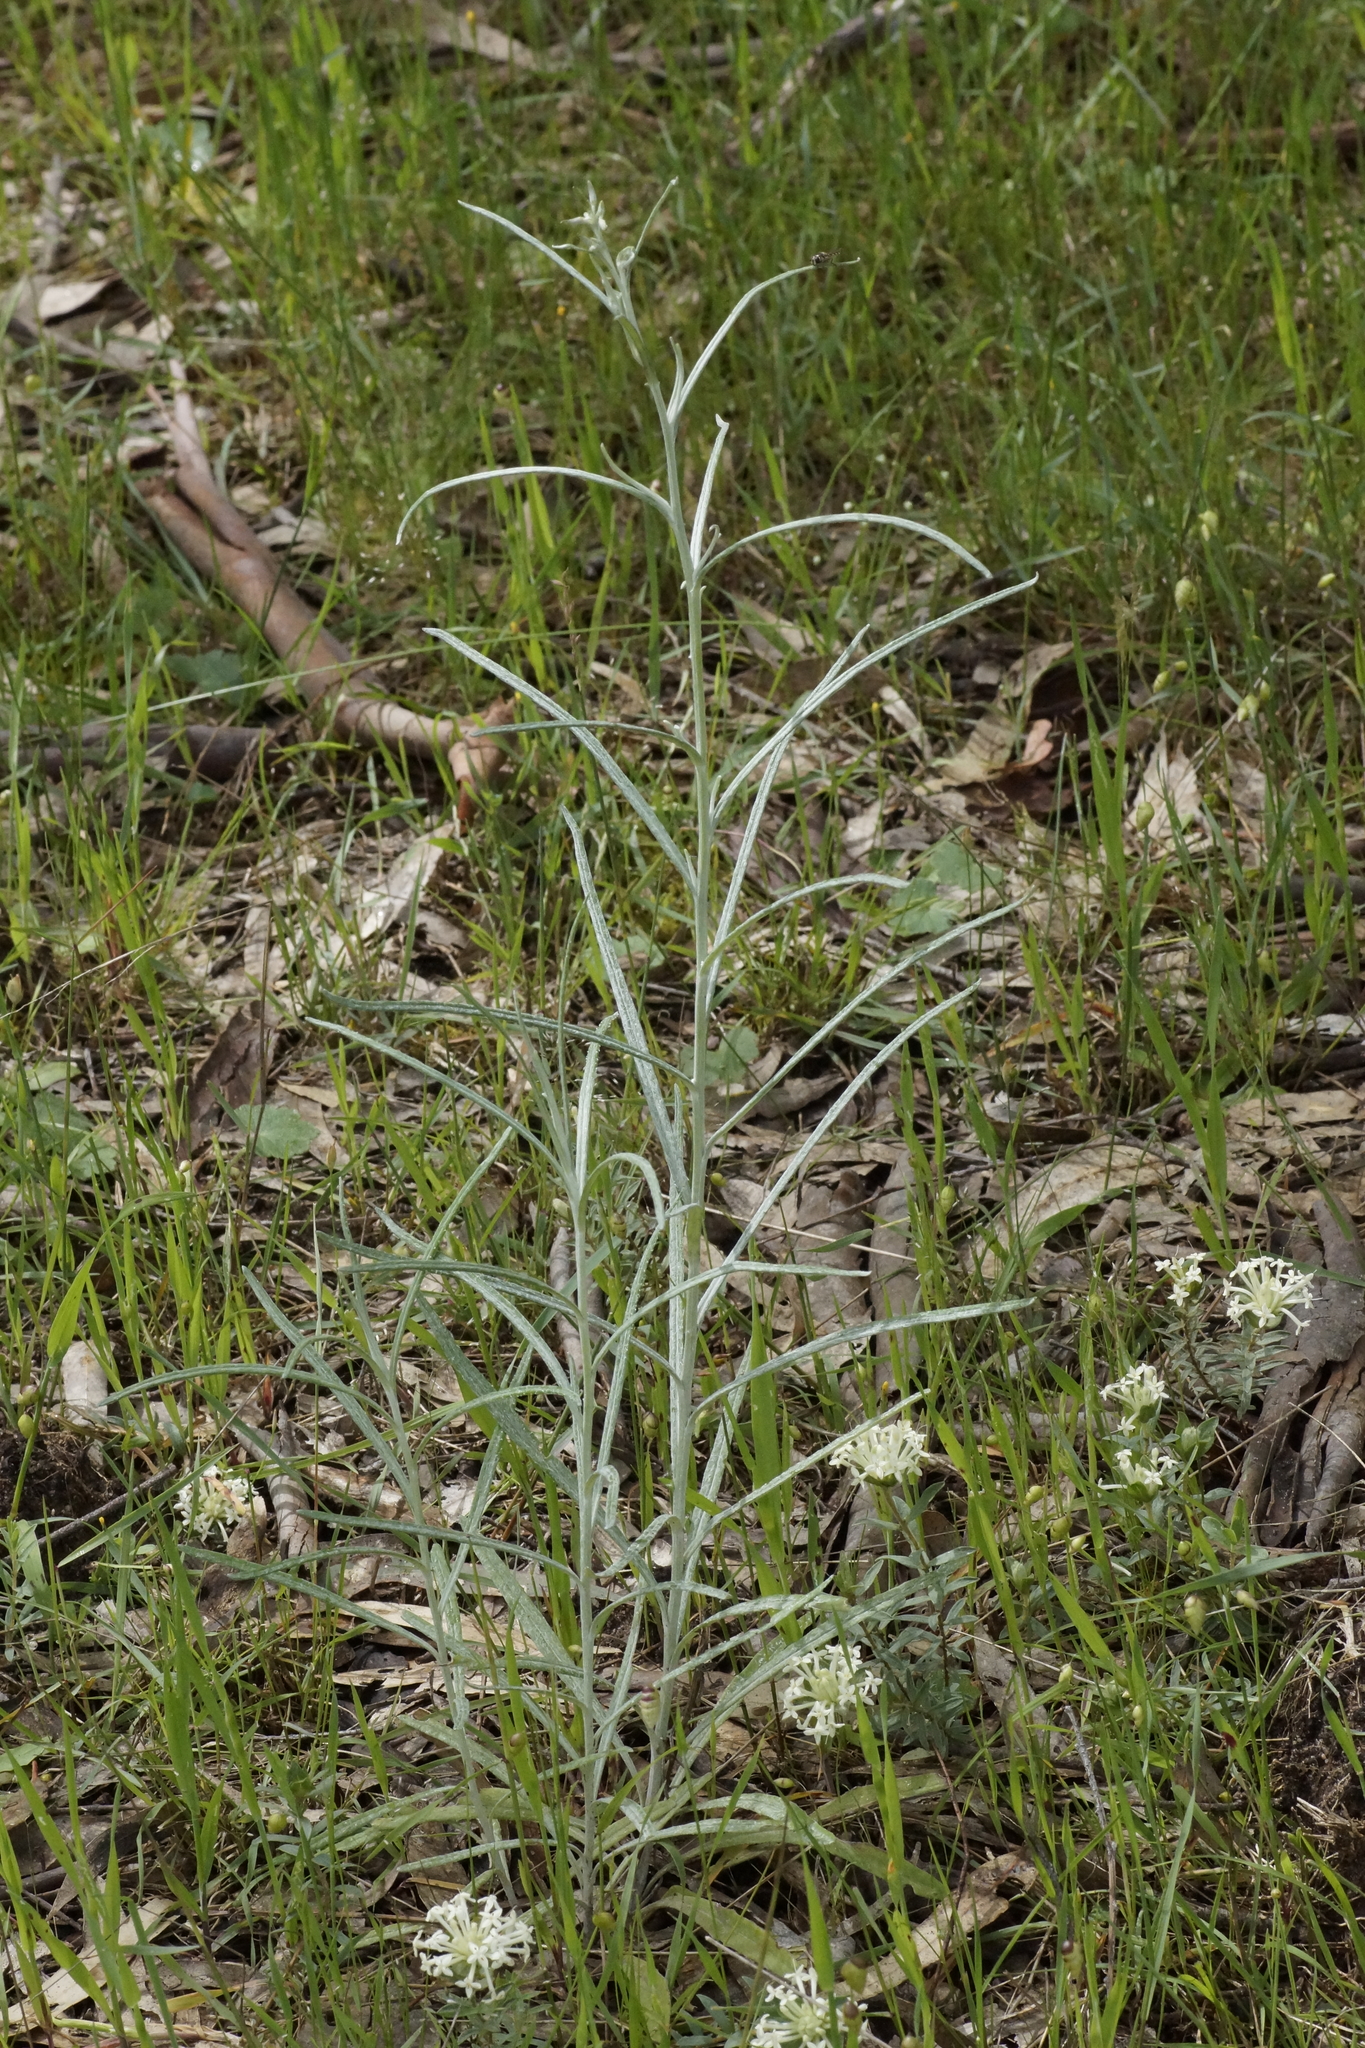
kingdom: Plantae
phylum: Tracheophyta
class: Magnoliopsida
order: Asterales
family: Asteraceae
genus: Senecio
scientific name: Senecio quadridentatus
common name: Cotton fireweed
